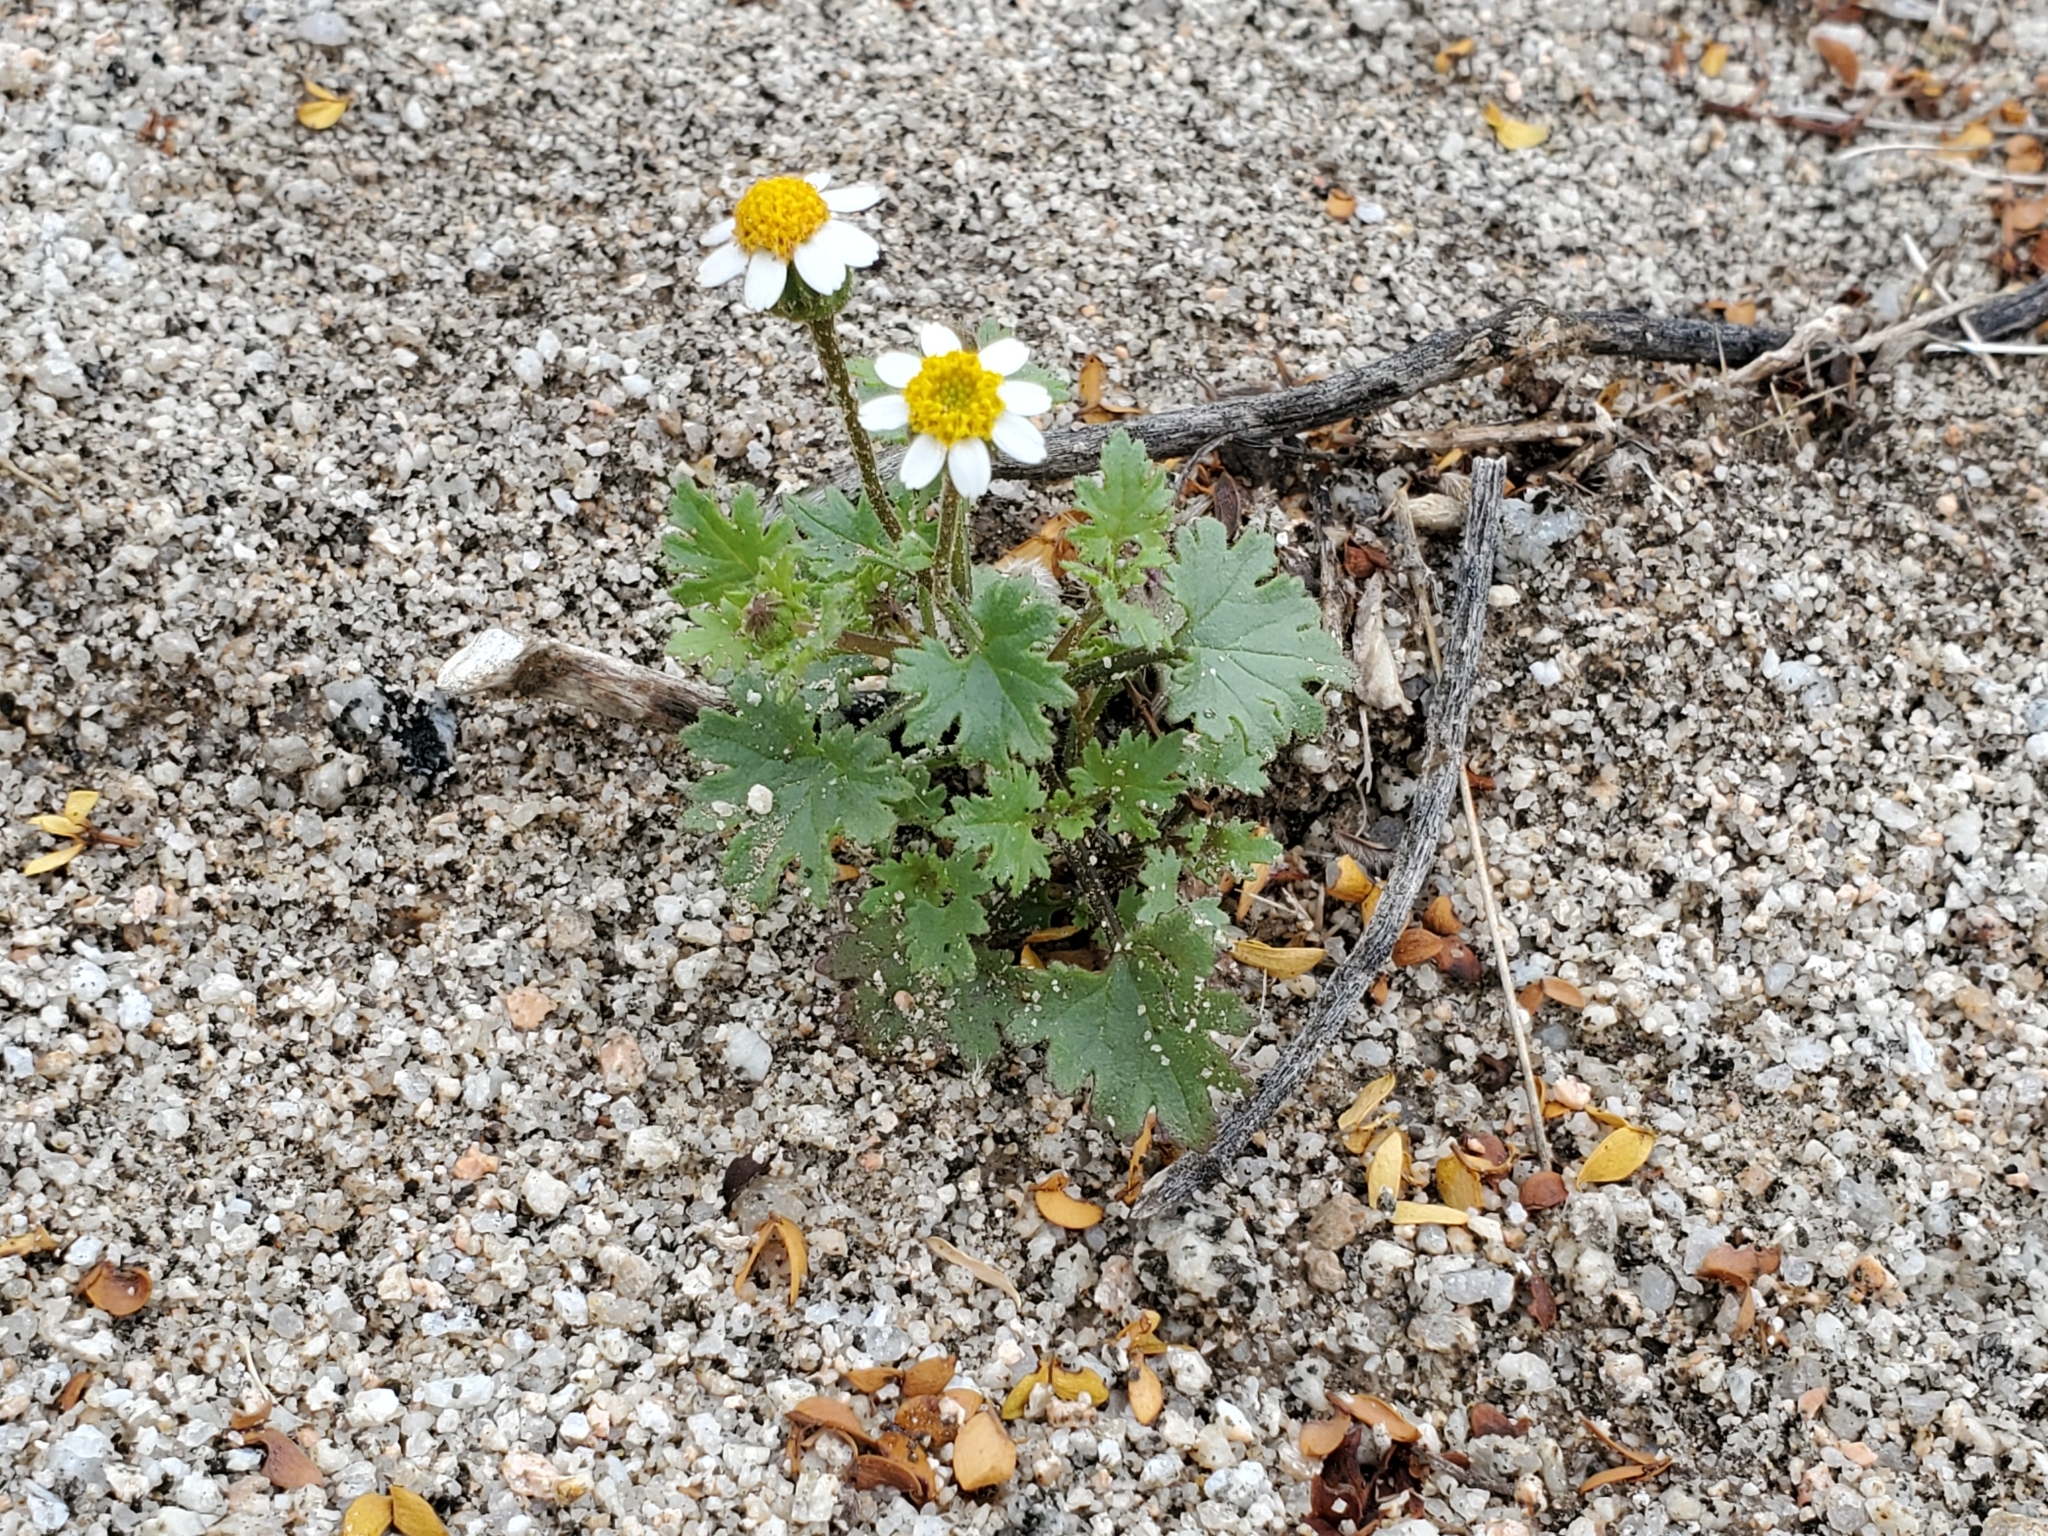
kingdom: Plantae
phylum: Tracheophyta
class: Magnoliopsida
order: Asterales
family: Asteraceae
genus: Laphamia
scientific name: Laphamia emoryi
